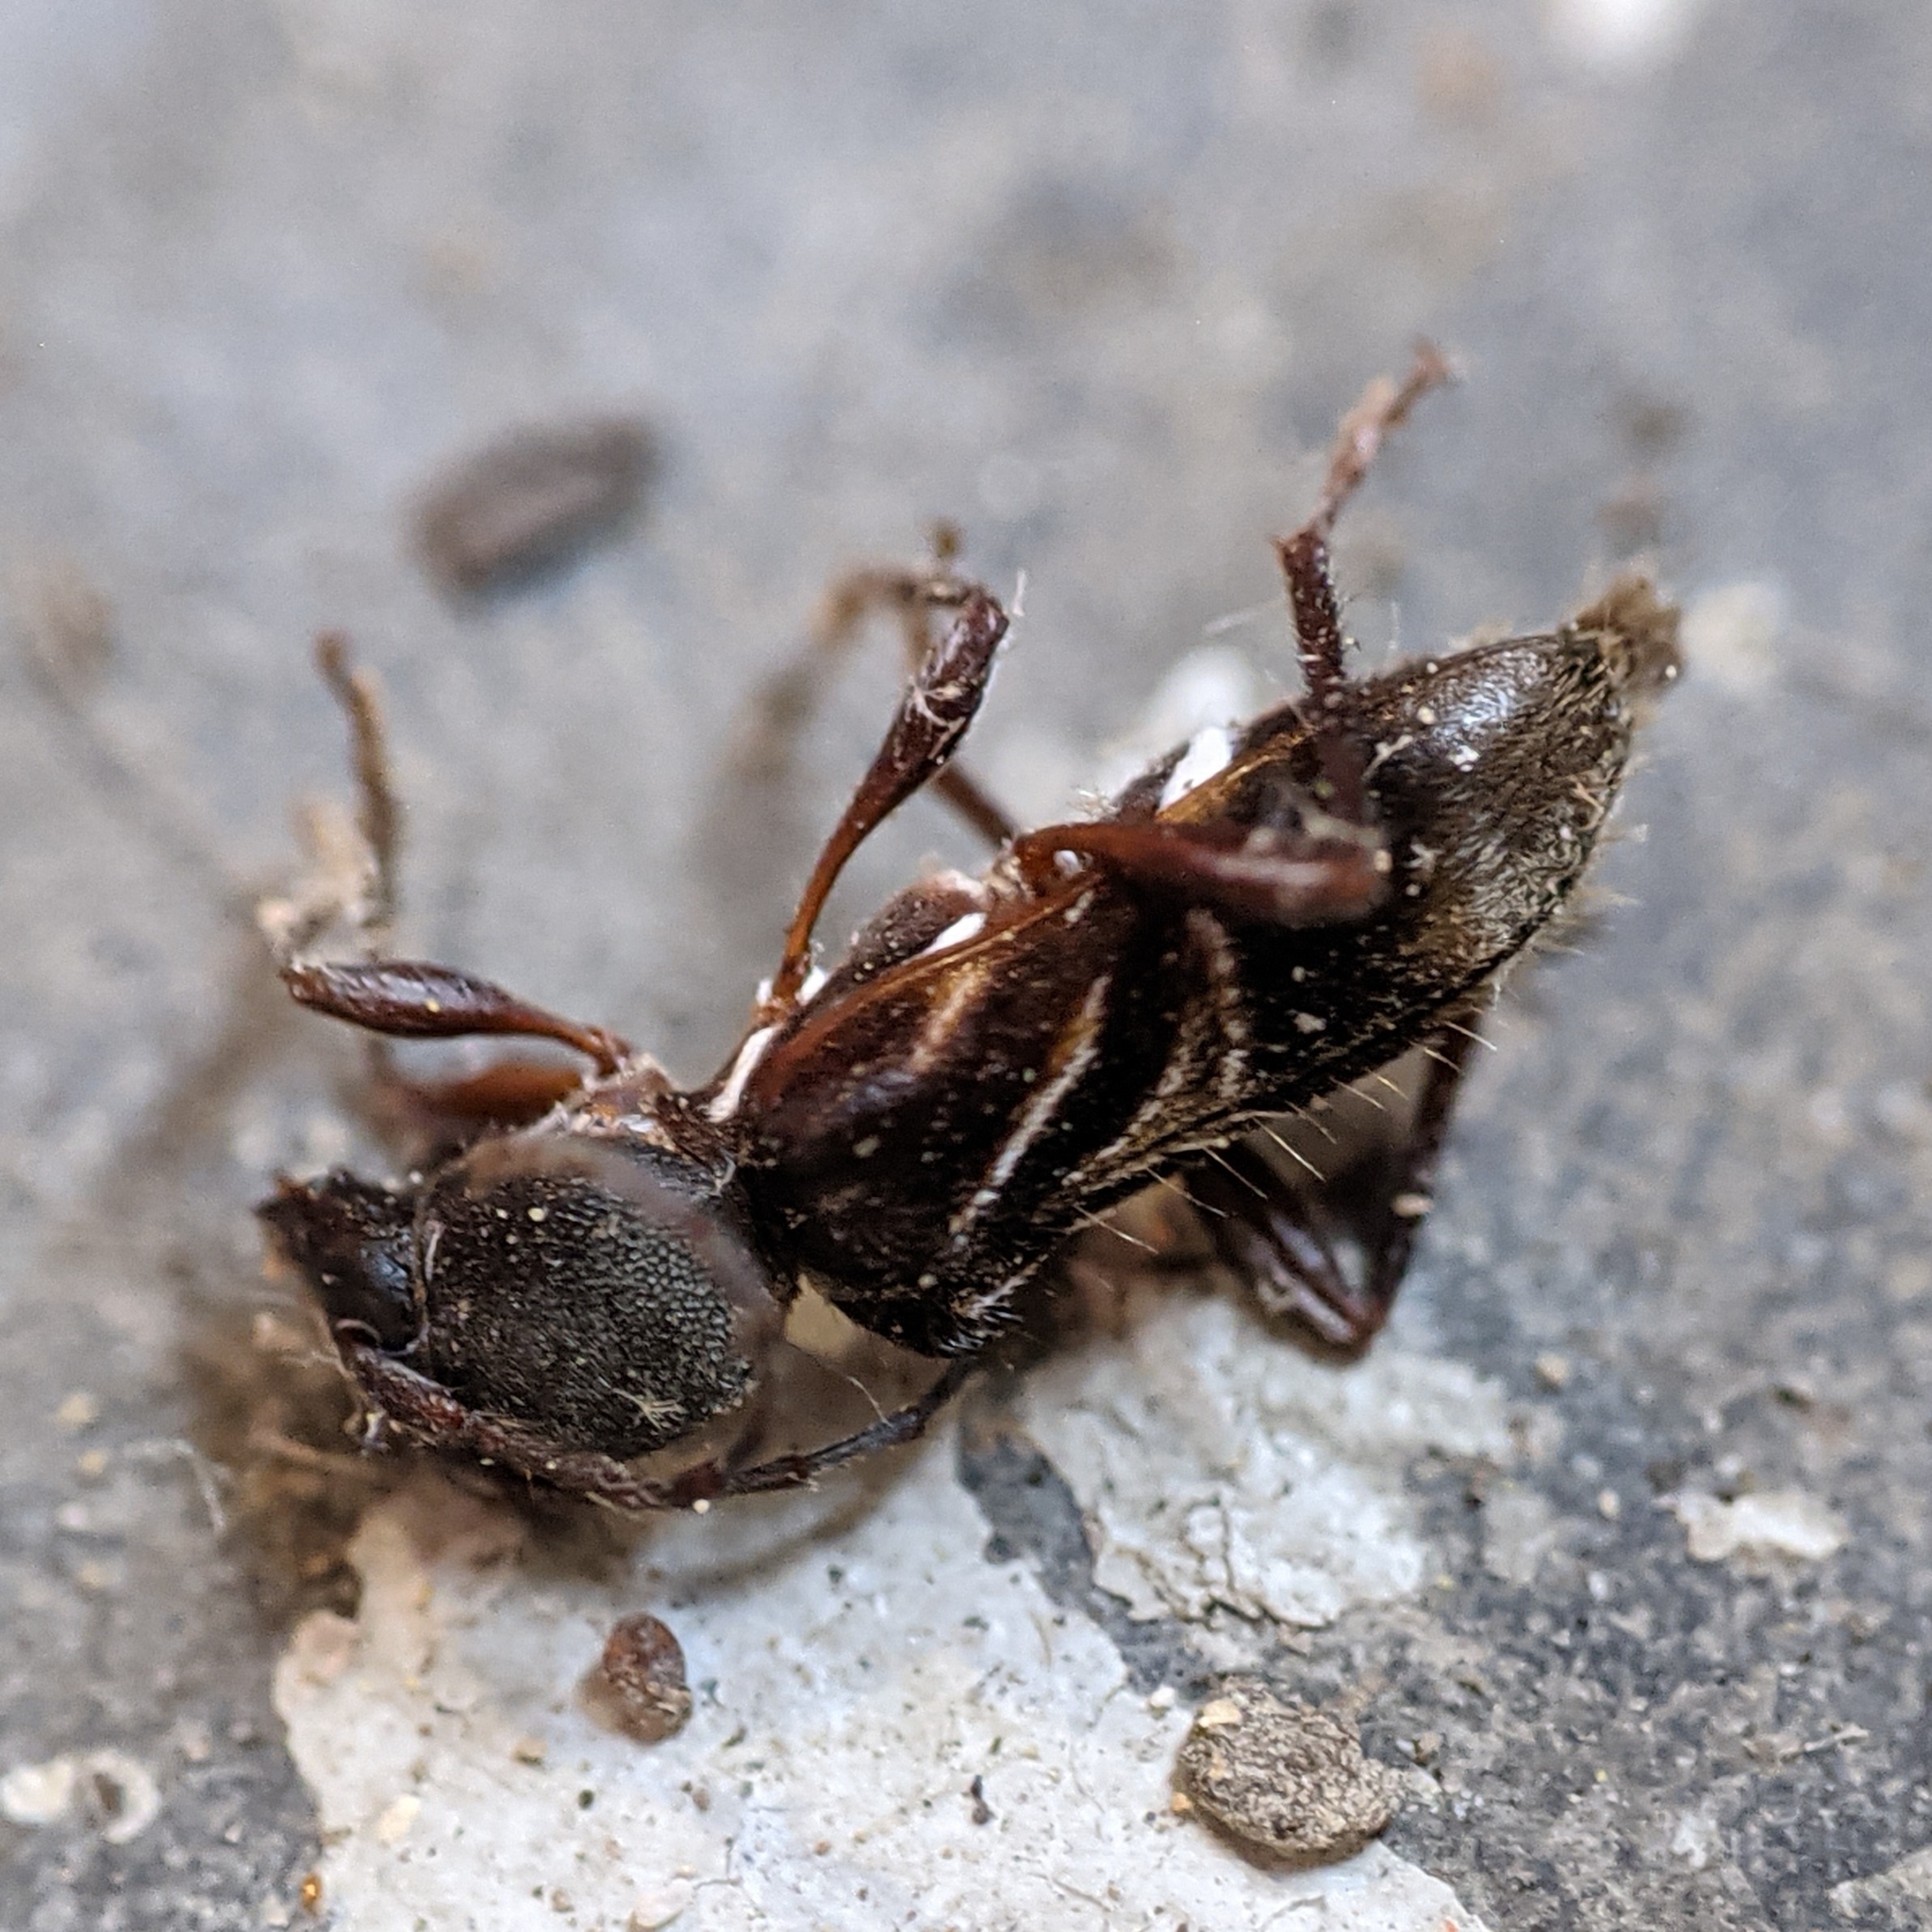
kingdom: Animalia
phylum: Arthropoda
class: Insecta
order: Coleoptera
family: Cerambycidae
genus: Cyrtophorus
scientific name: Cyrtophorus verrucosus
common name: Ant-like longhorn beetle
